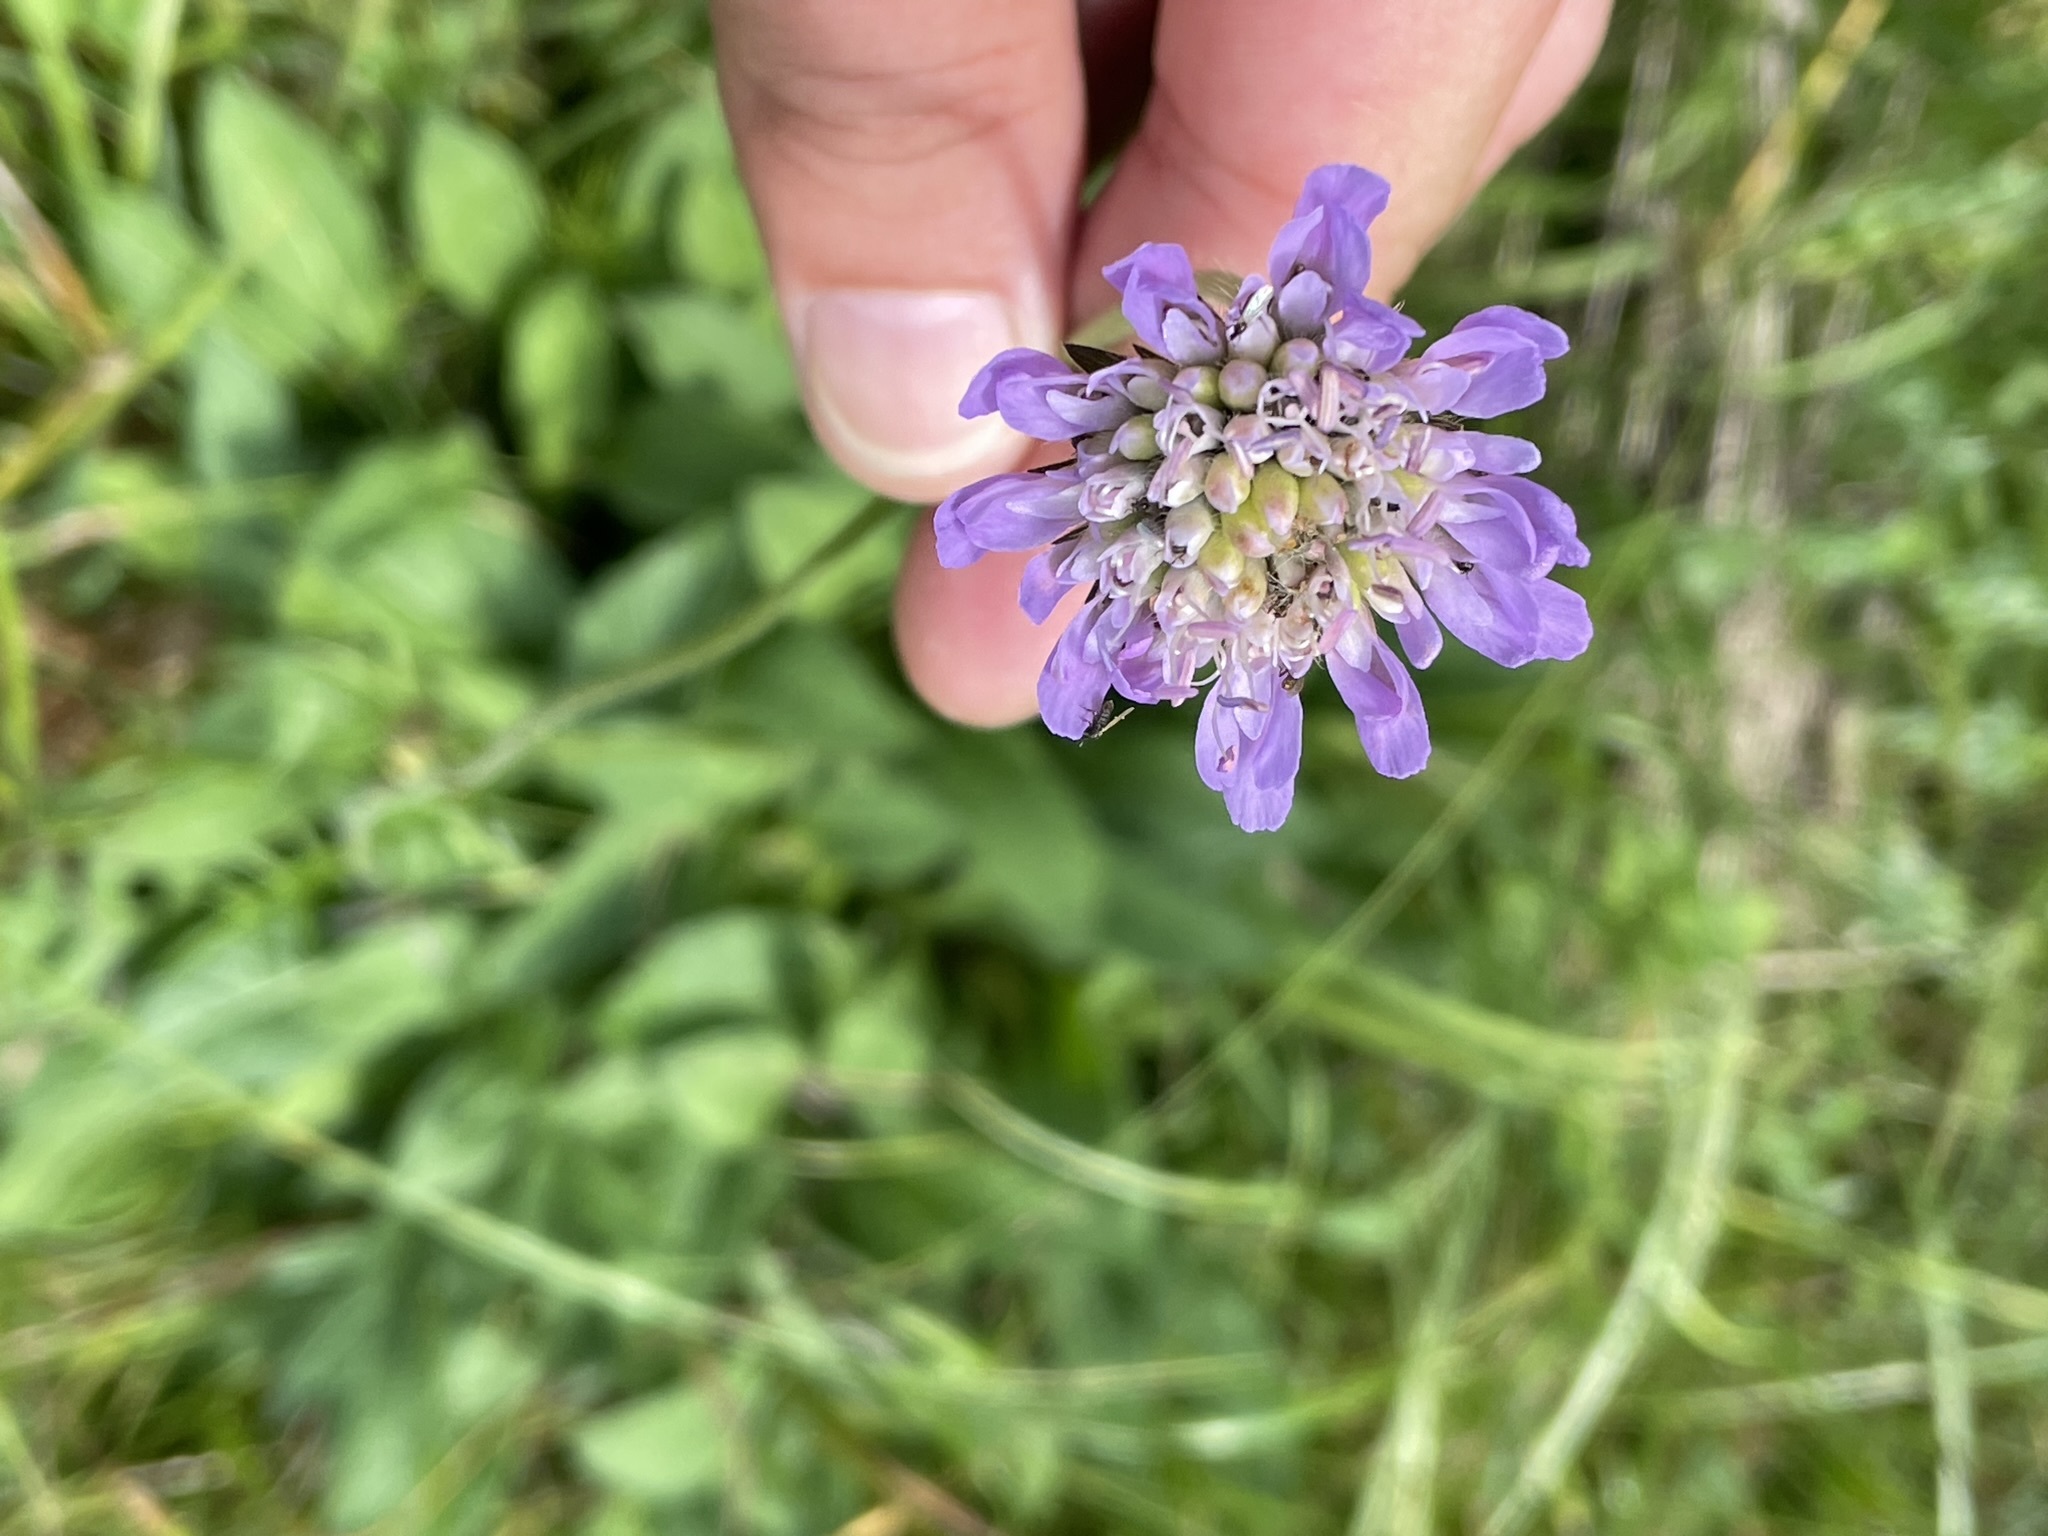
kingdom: Plantae
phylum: Tracheophyta
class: Magnoliopsida
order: Dipsacales
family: Caprifoliaceae
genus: Knautia
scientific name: Knautia arvensis
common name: Field scabiosa
